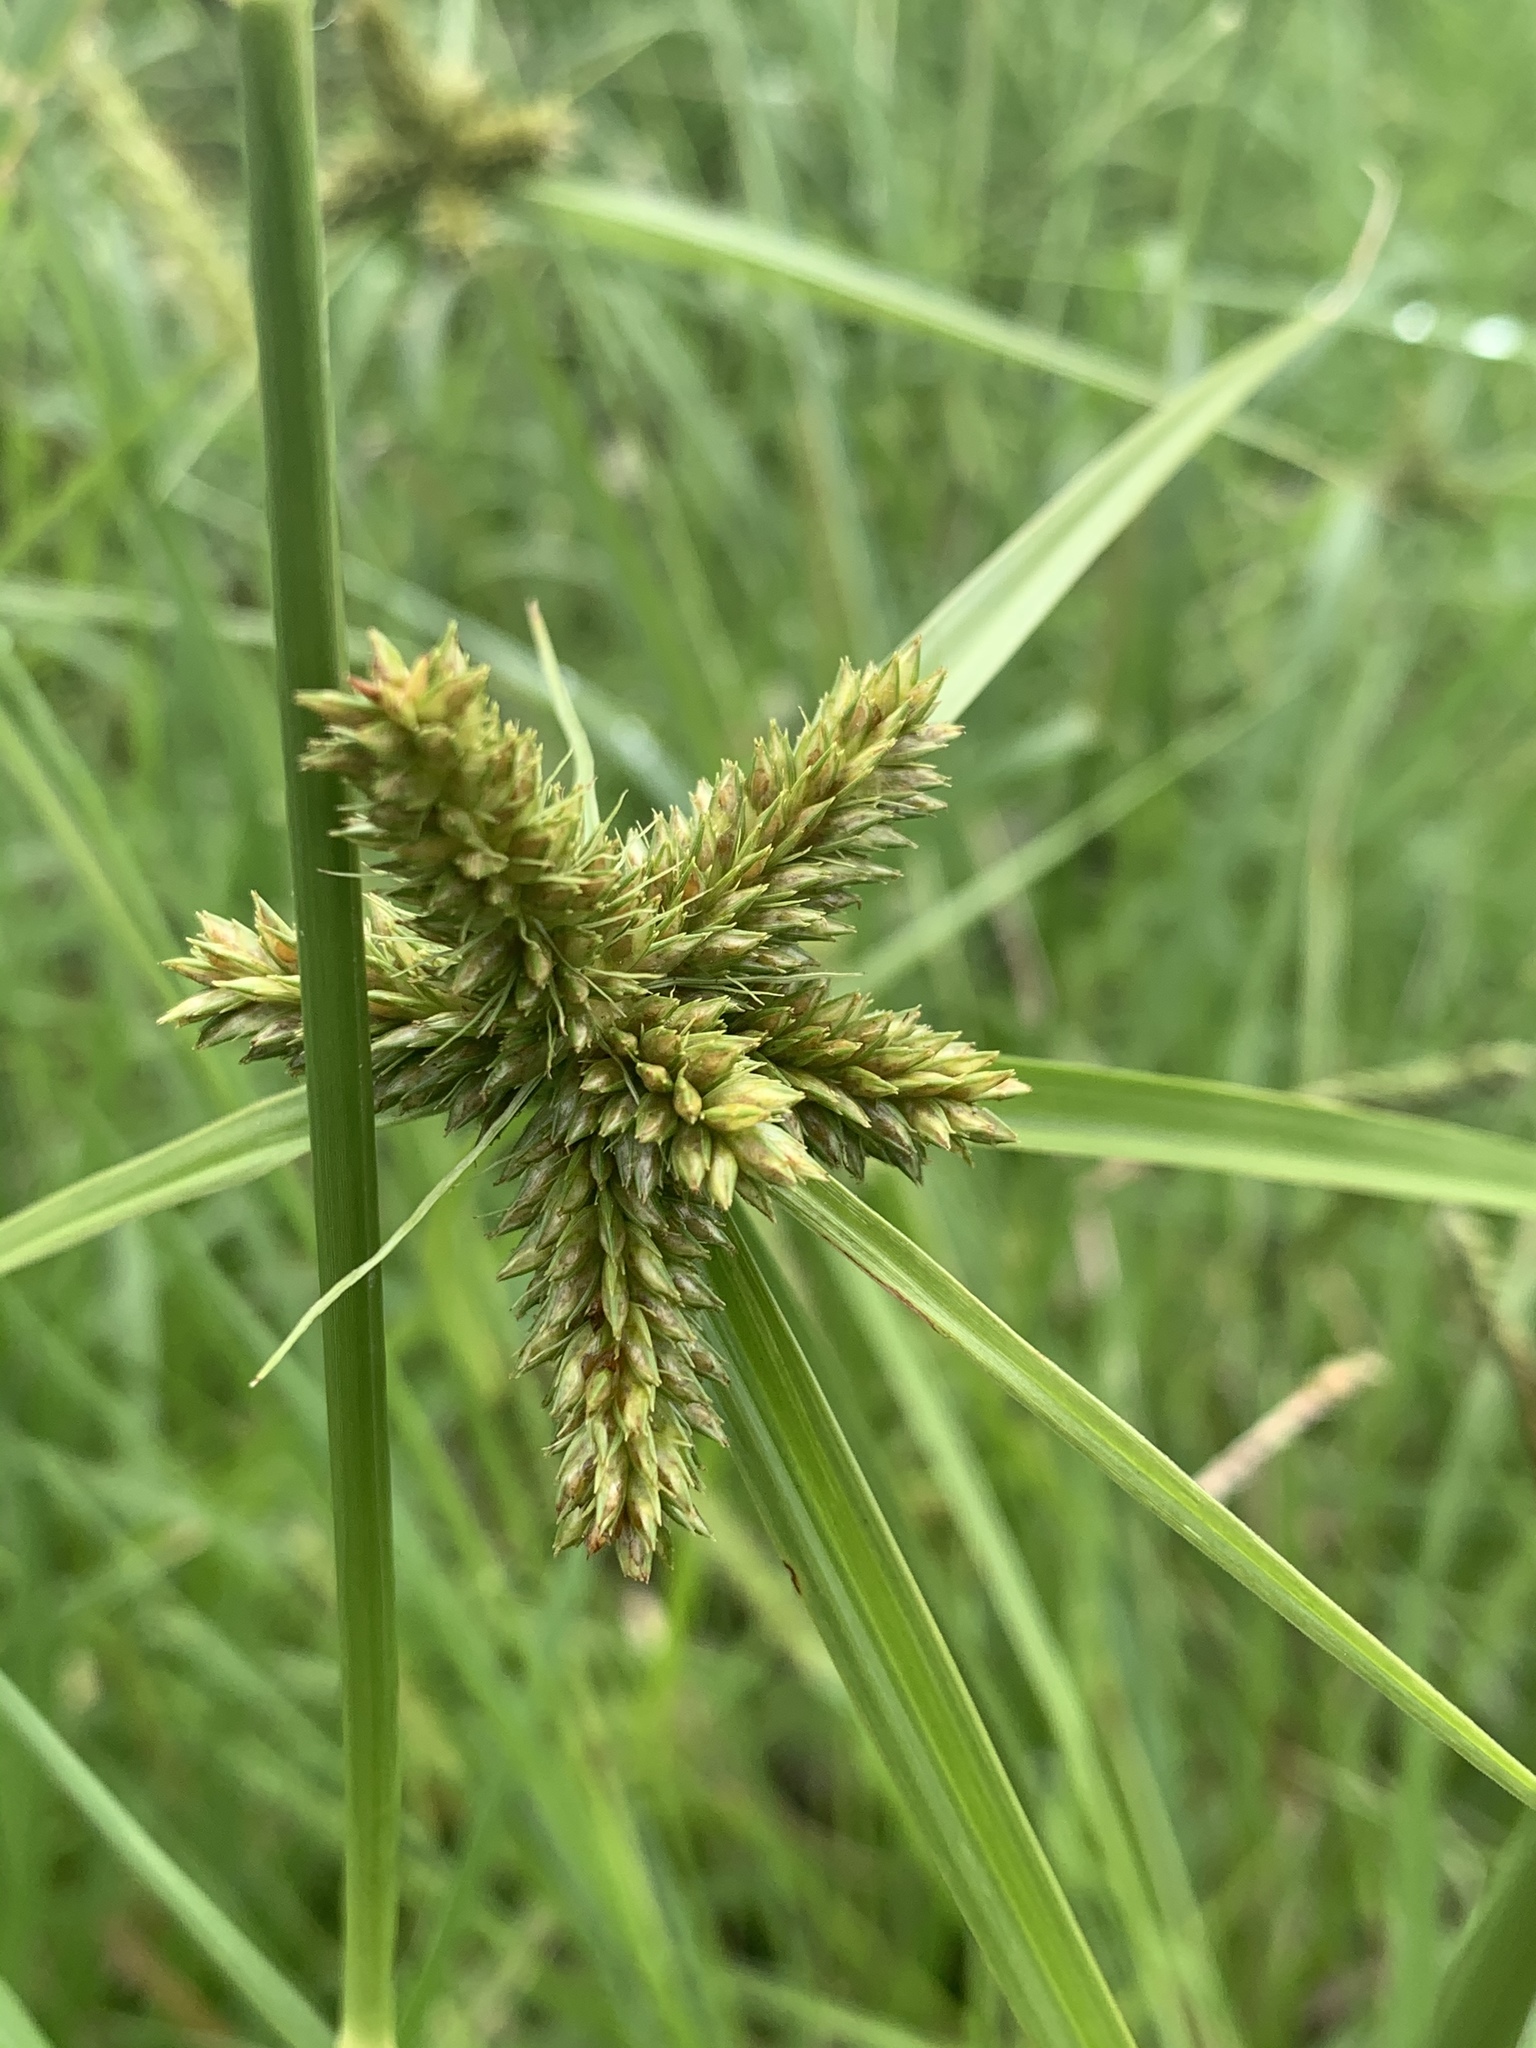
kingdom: Plantae
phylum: Tracheophyta
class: Liliopsida
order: Poales
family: Cyperaceae
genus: Cyperus
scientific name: Cyperus aggregatus
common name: Inflatedscale flatsedge
